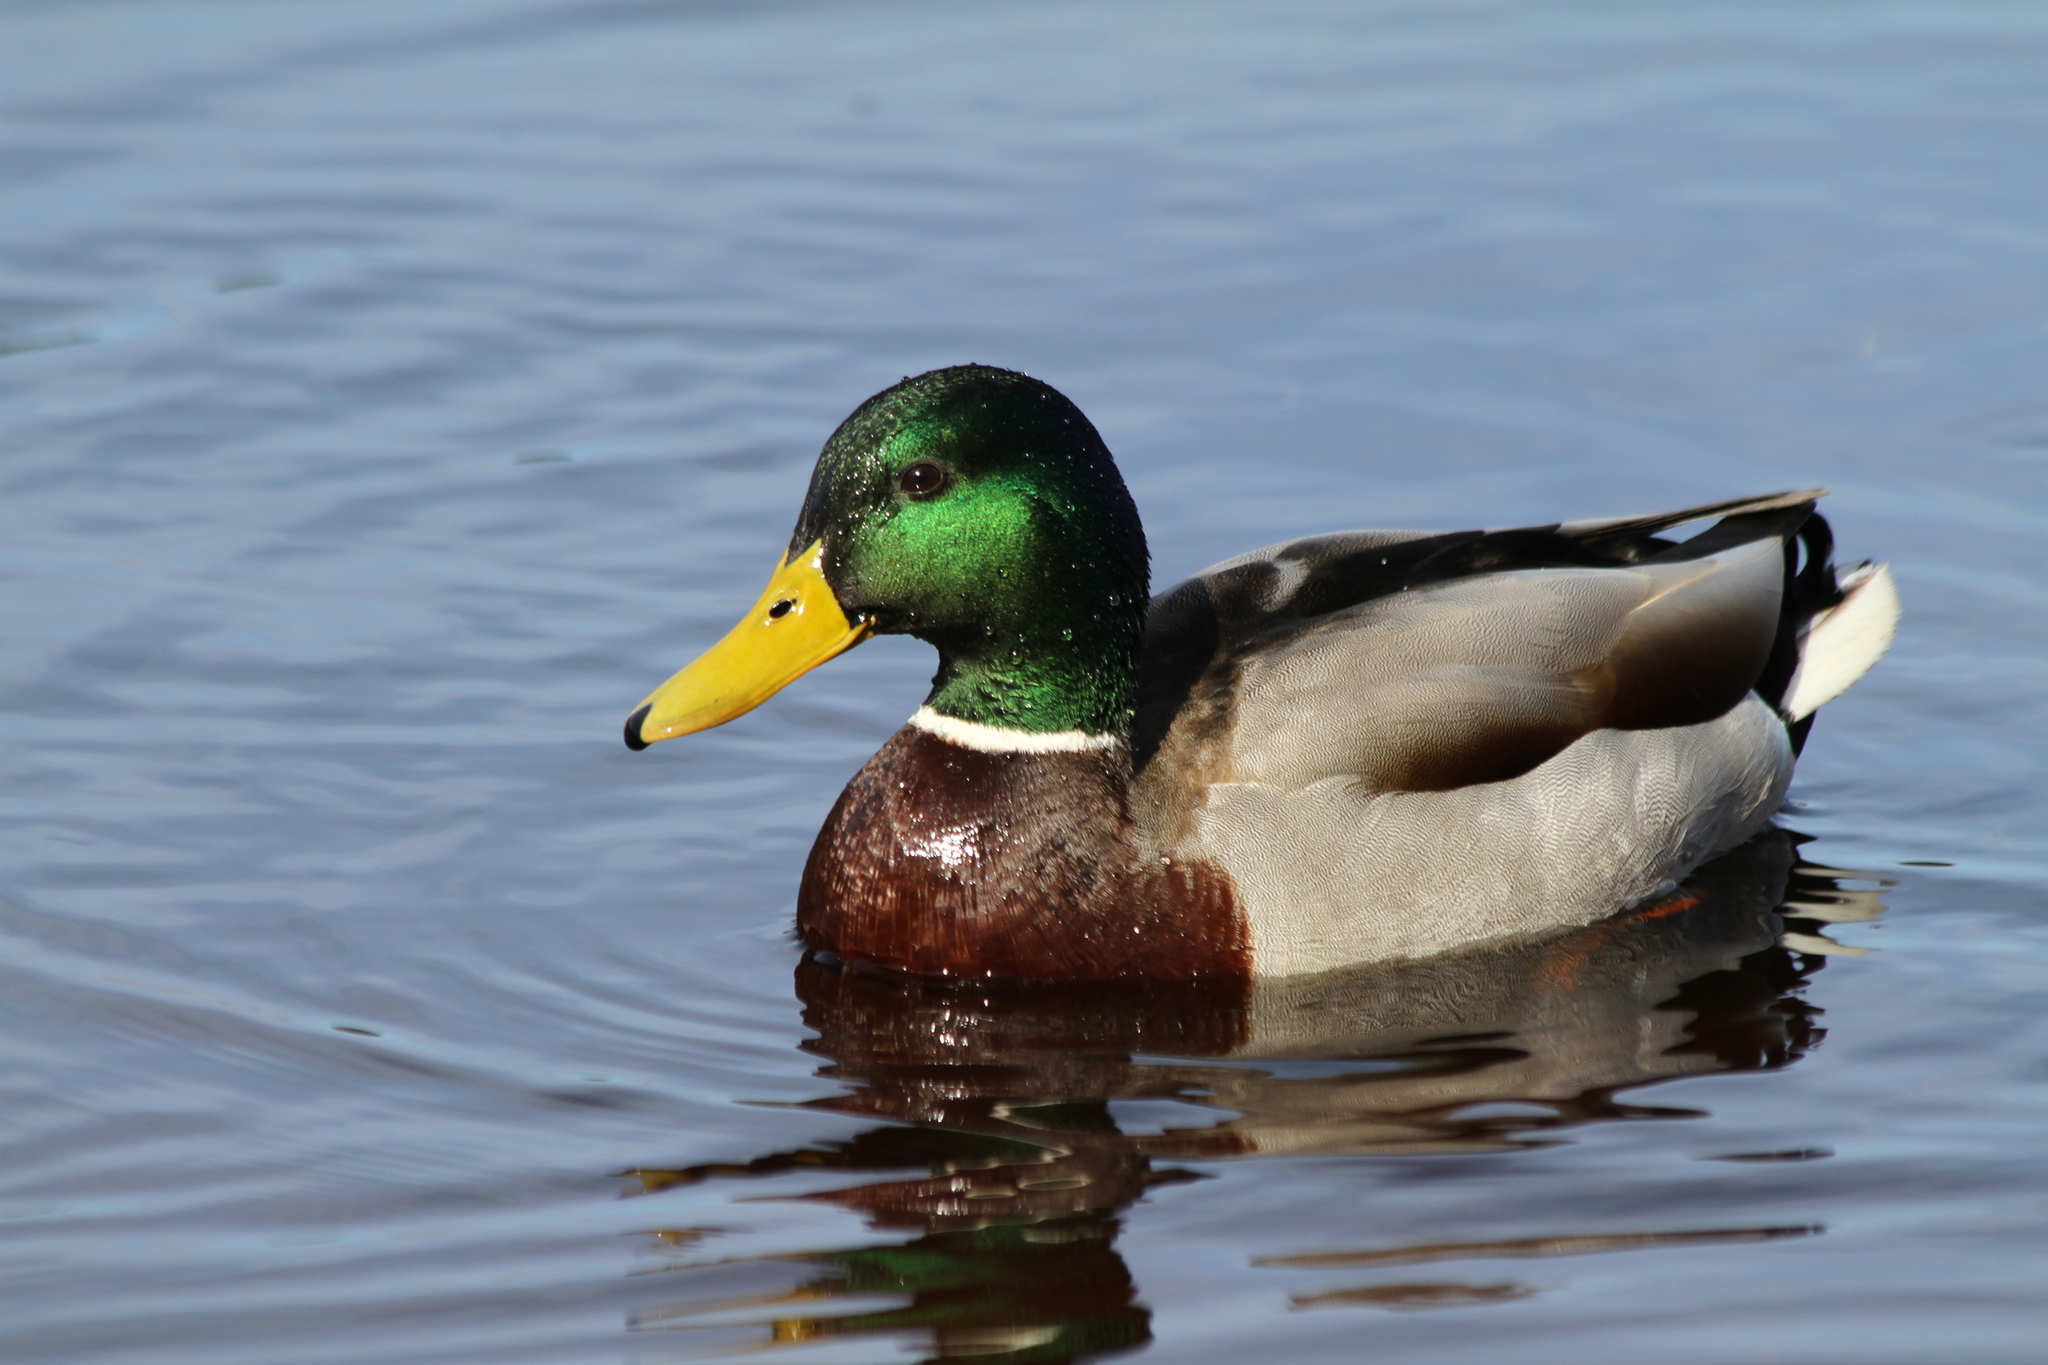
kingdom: Animalia
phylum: Chordata
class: Aves
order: Anseriformes
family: Anatidae
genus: Anas
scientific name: Anas platyrhynchos
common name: Mallard
